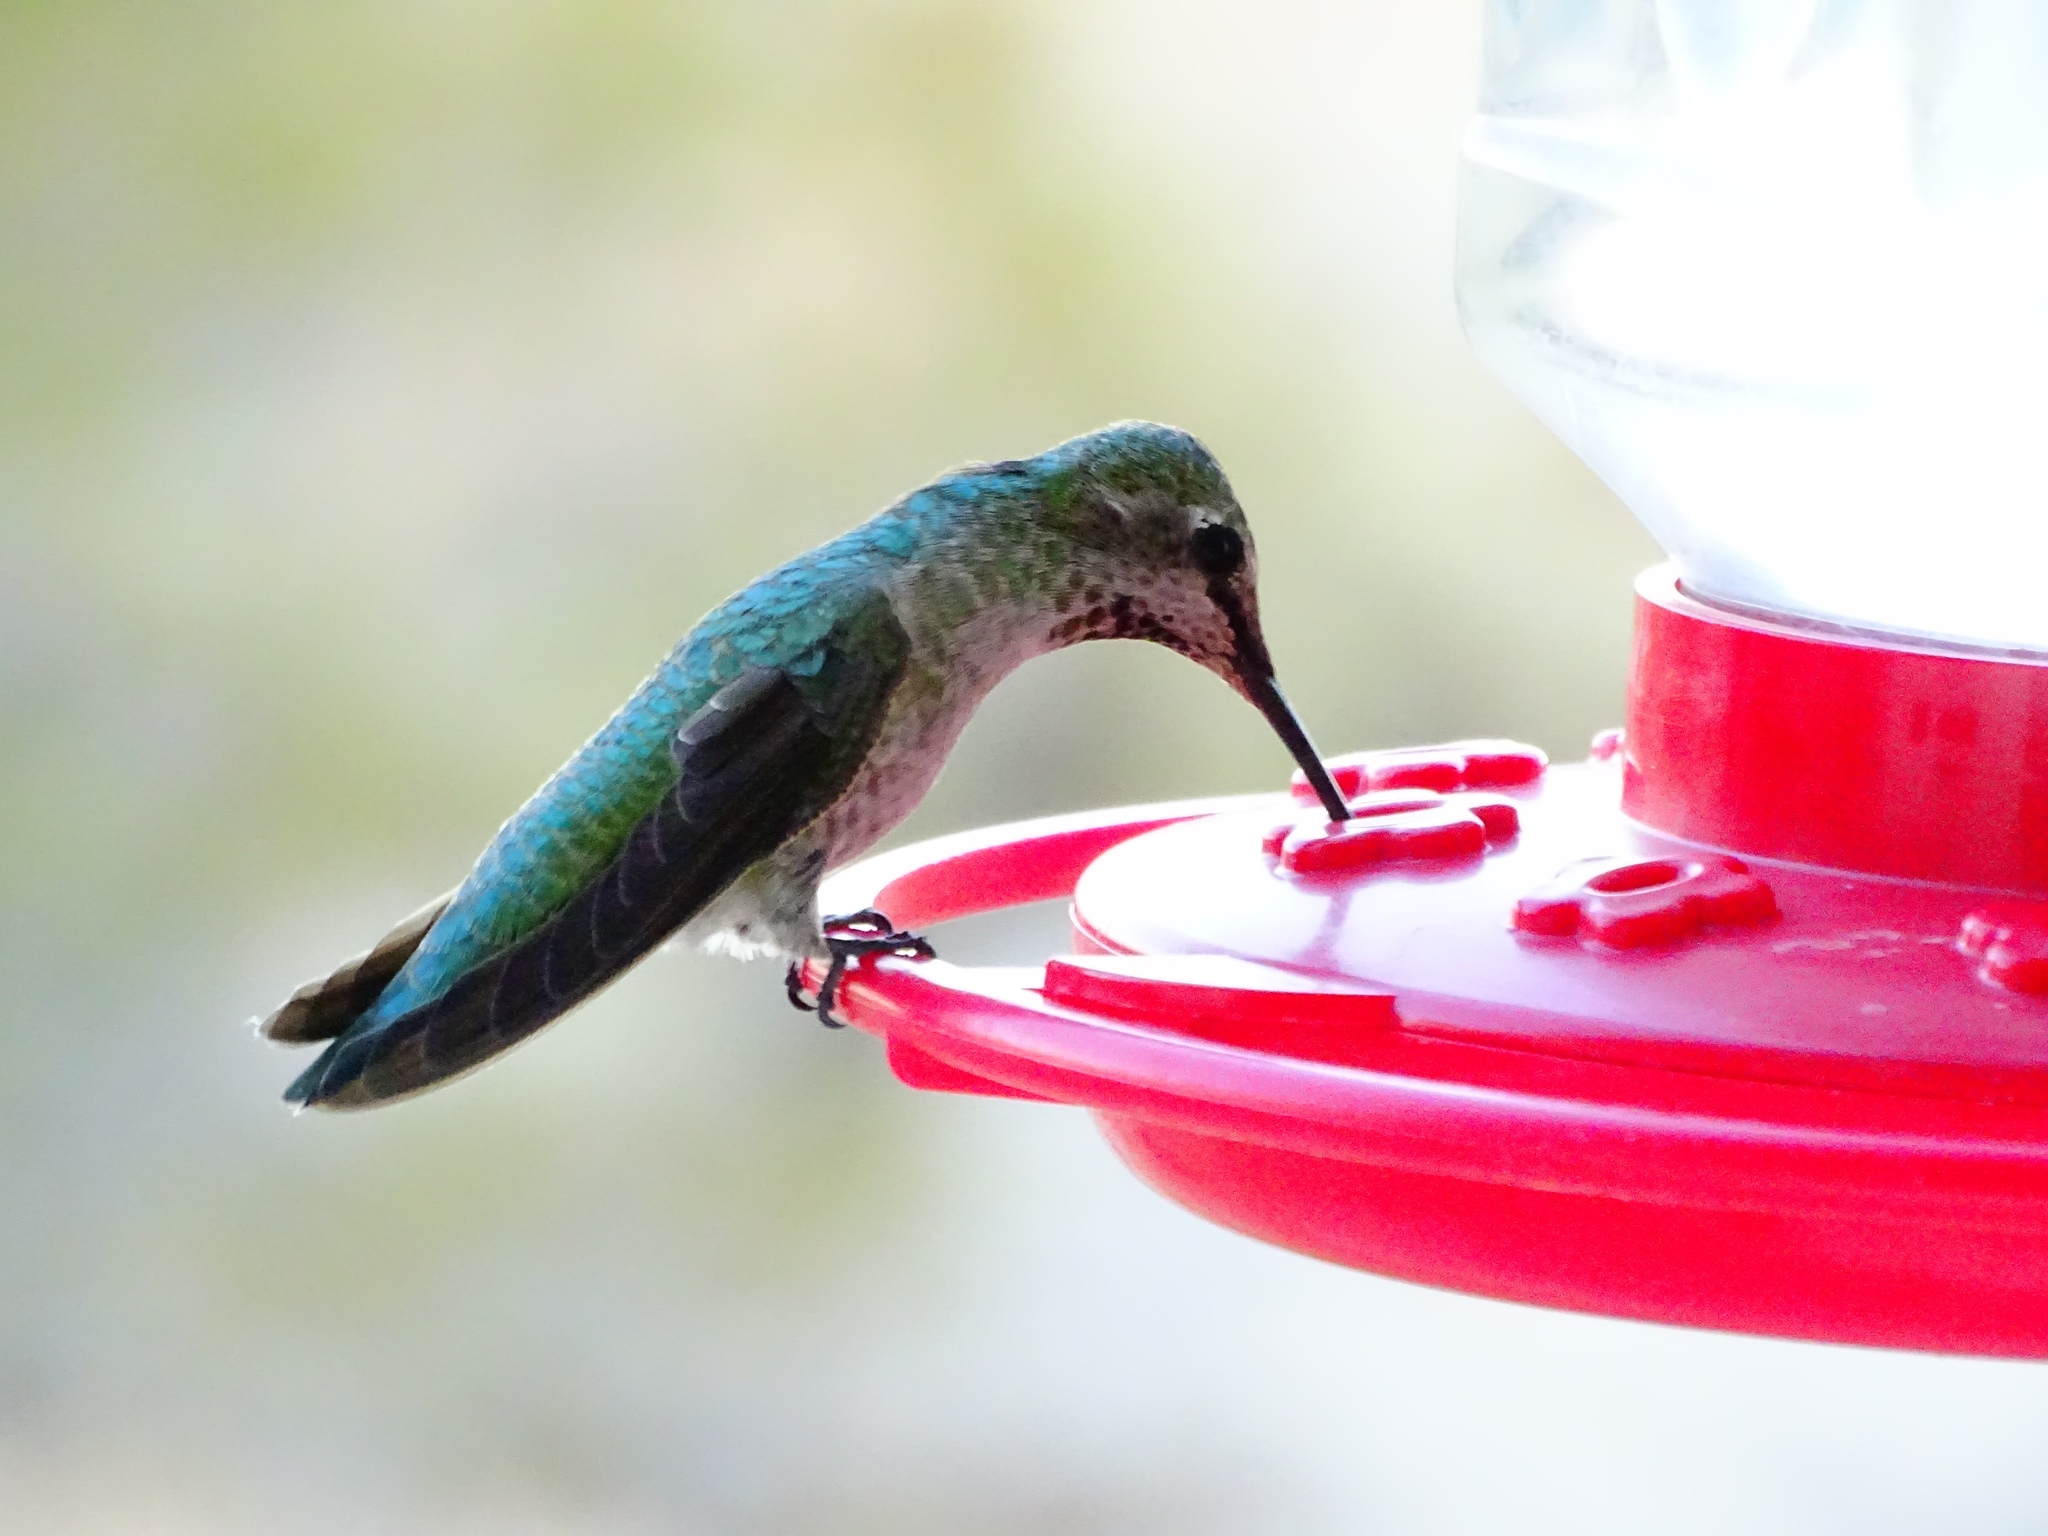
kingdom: Animalia
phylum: Chordata
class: Aves
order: Apodiformes
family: Trochilidae
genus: Calypte
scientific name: Calypte anna
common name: Anna's hummingbird
